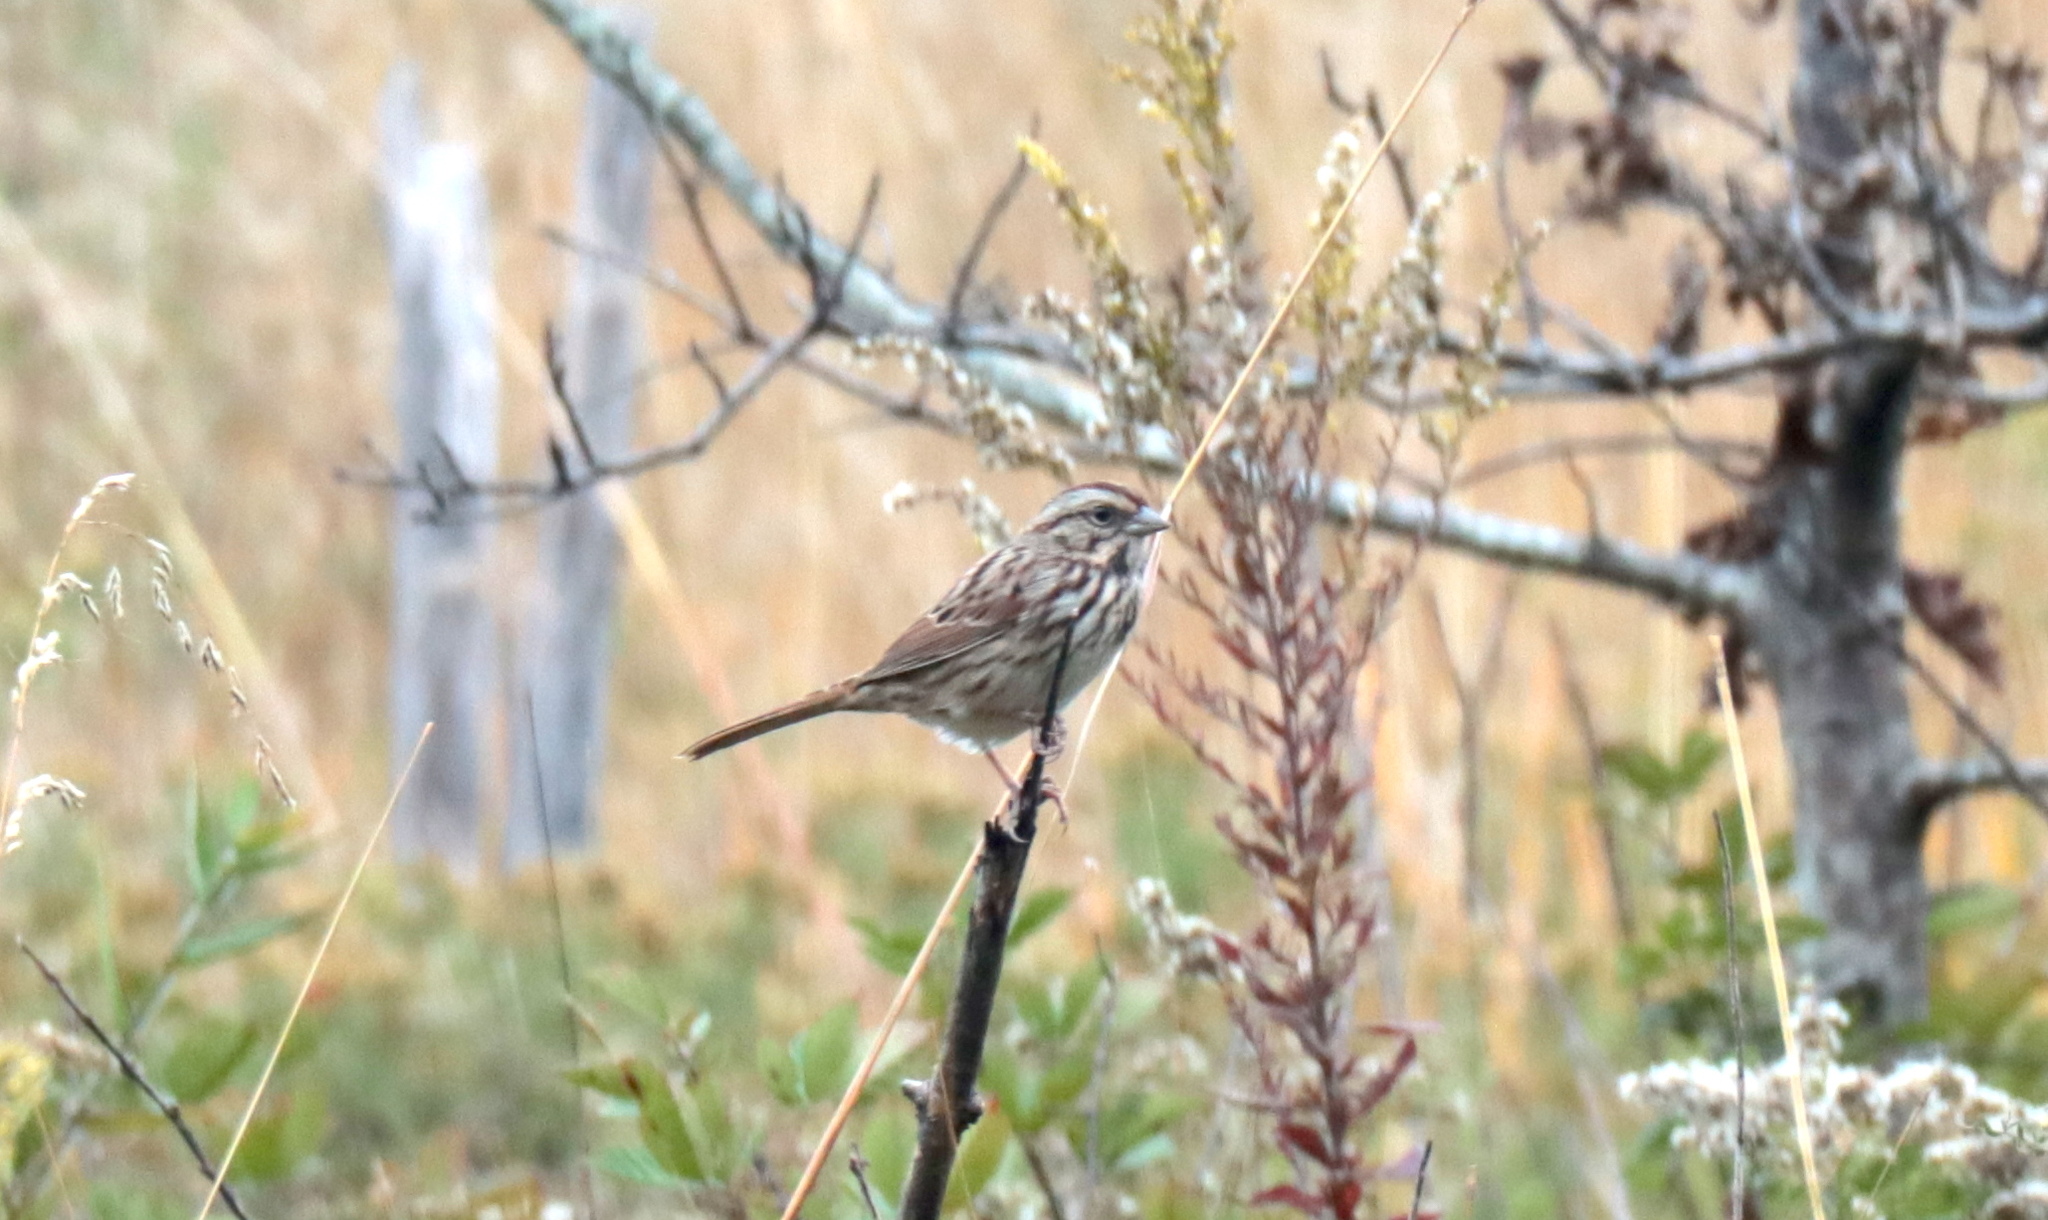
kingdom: Animalia
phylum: Chordata
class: Aves
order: Passeriformes
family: Passerellidae
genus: Melospiza
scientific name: Melospiza melodia
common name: Song sparrow
